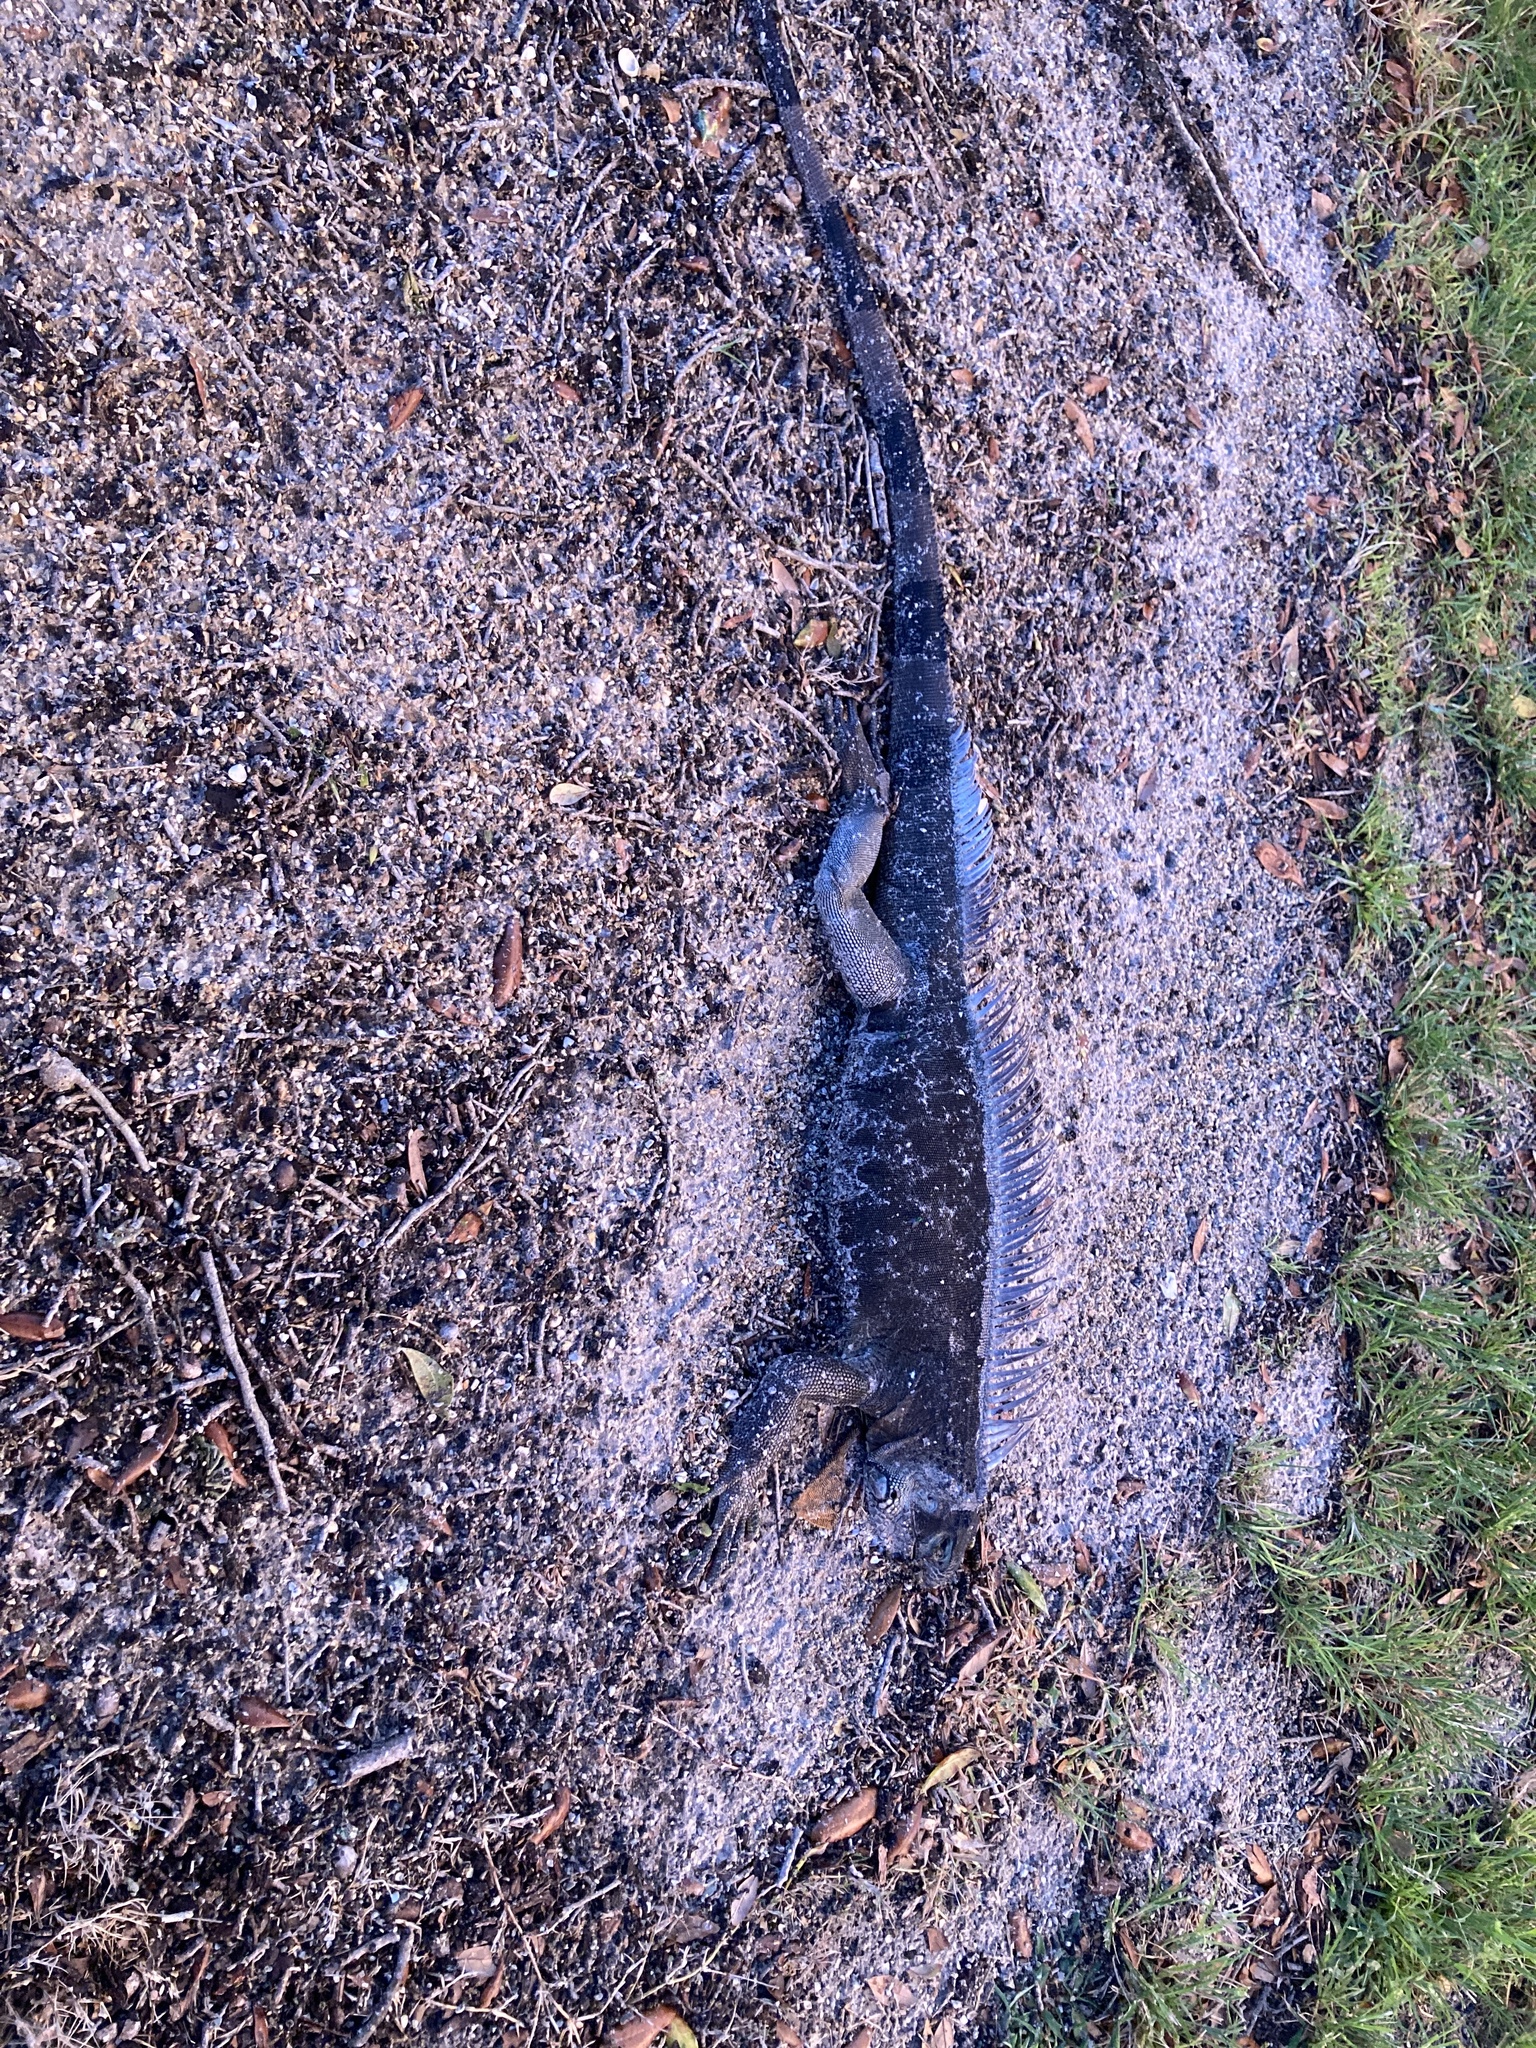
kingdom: Animalia
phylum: Chordata
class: Squamata
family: Iguanidae
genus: Iguana
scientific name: Iguana iguana
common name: Green iguana
